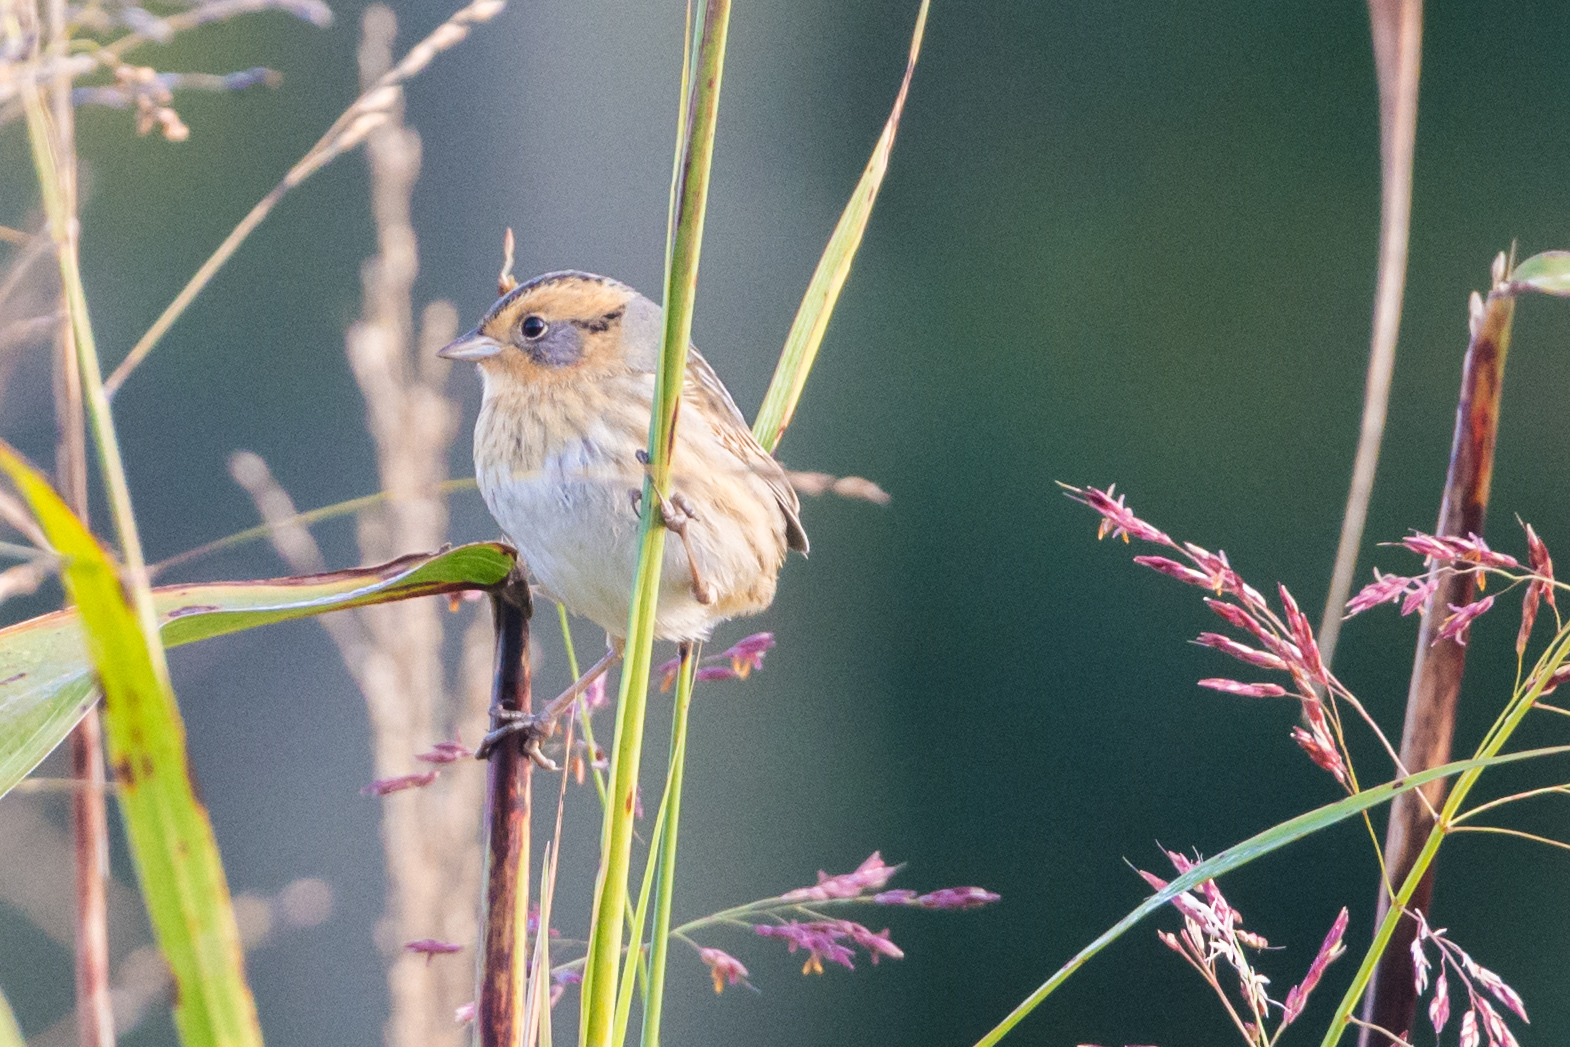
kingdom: Animalia
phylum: Chordata
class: Aves
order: Passeriformes
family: Passerellidae
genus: Ammospiza
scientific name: Ammospiza nelsoni
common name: Nelson's sparrow
